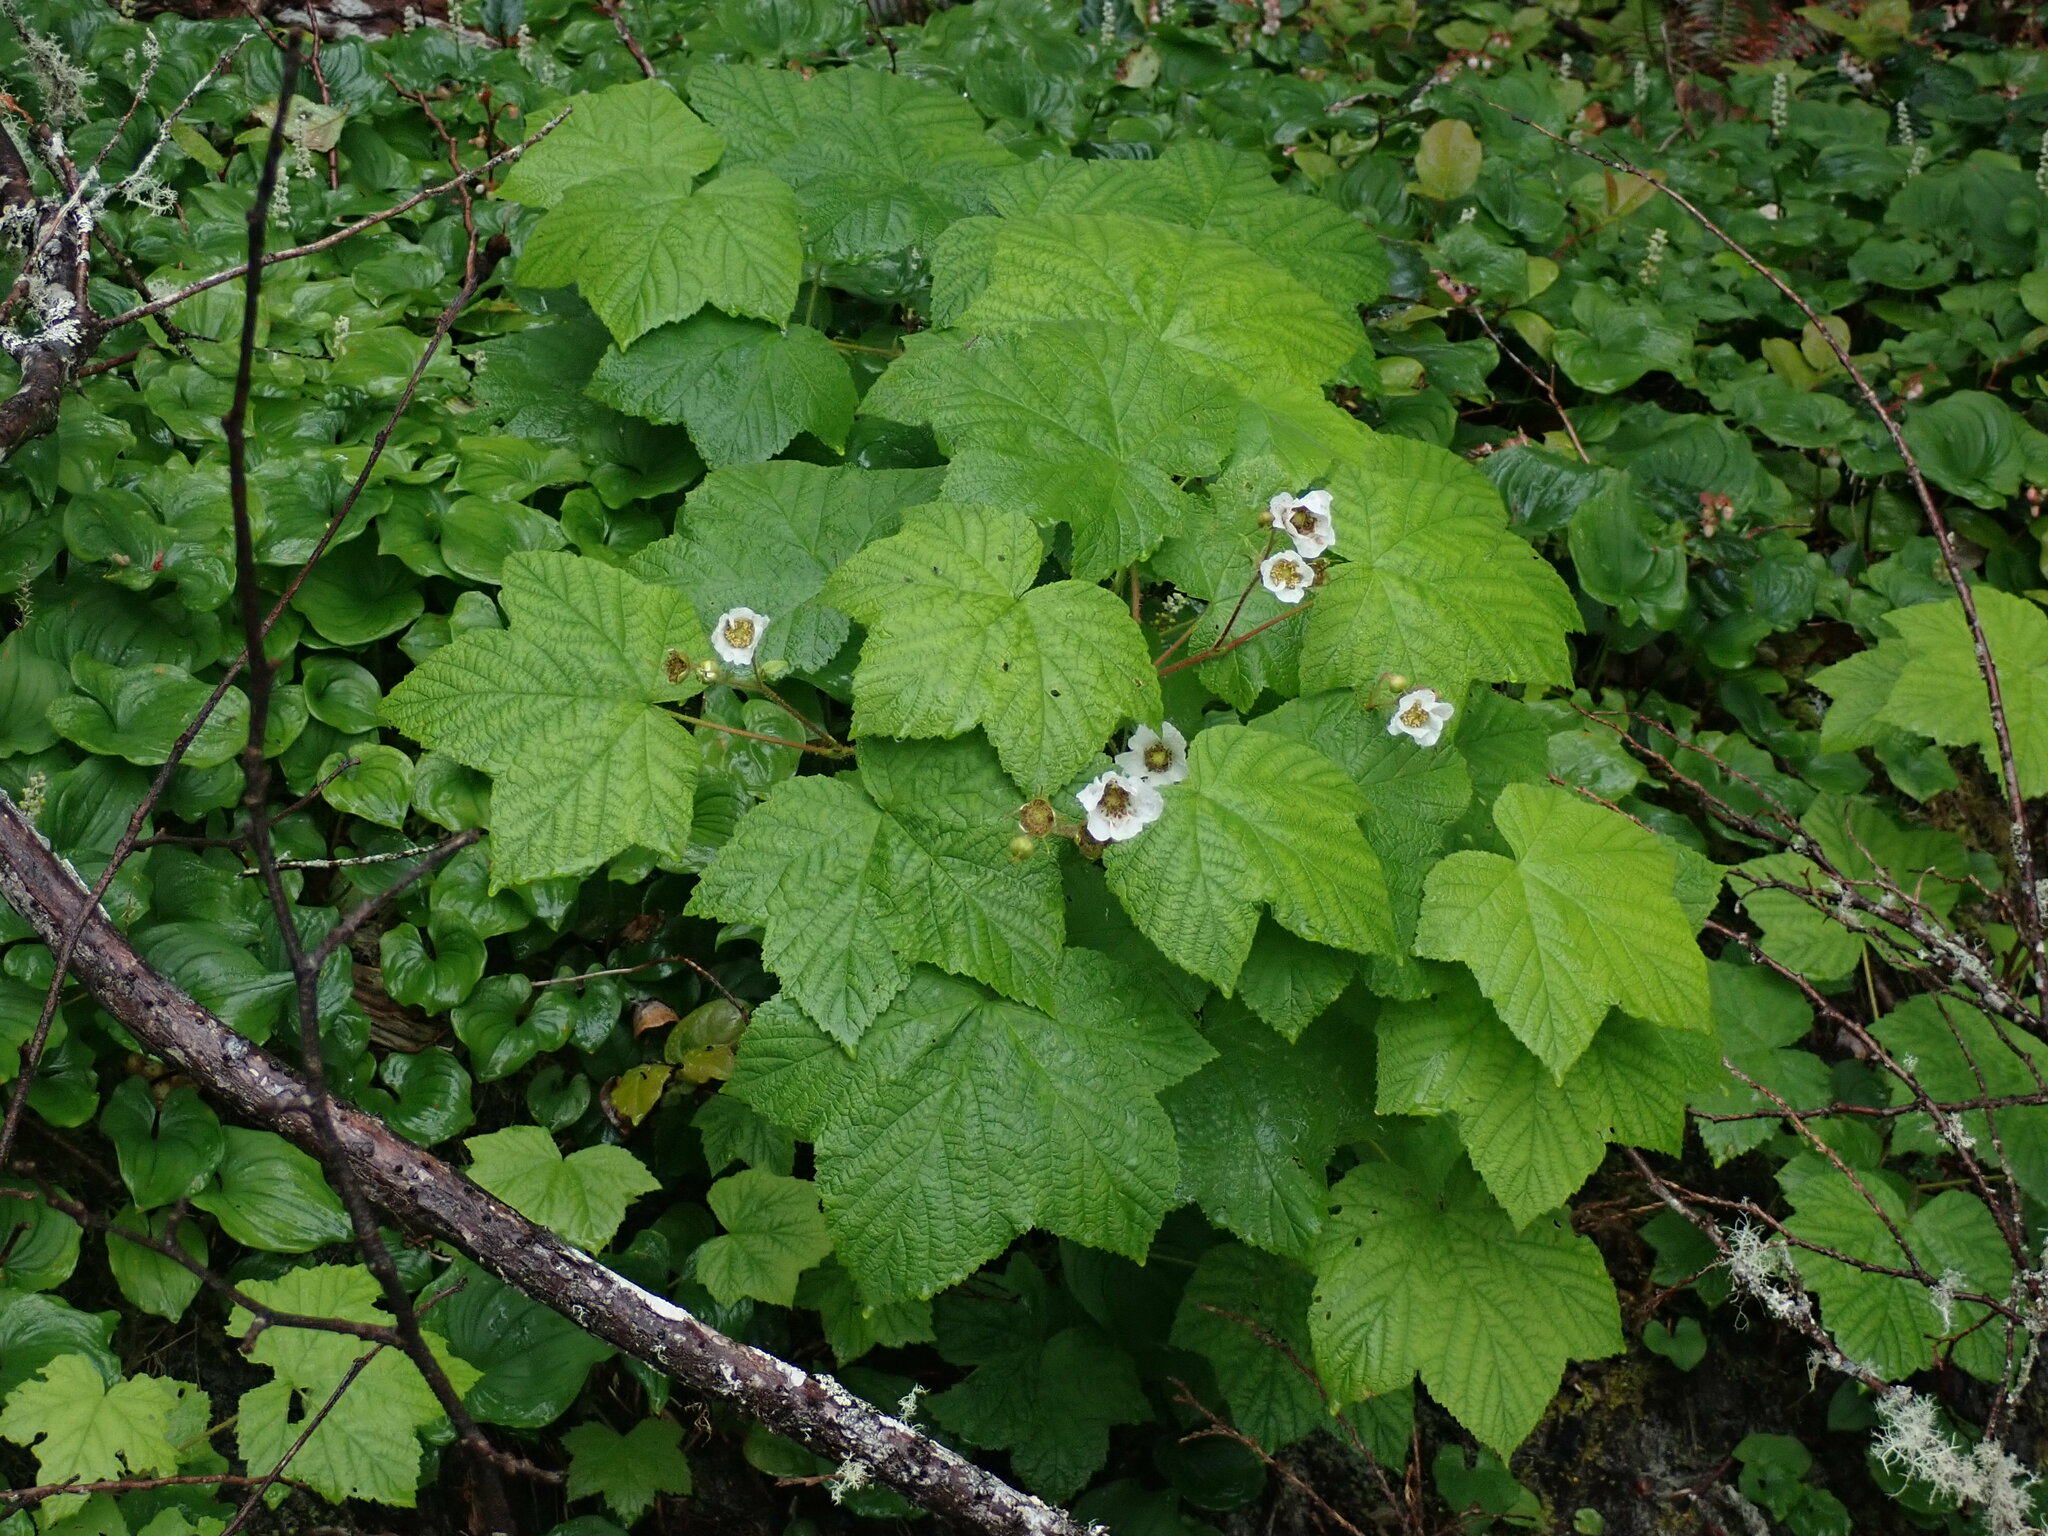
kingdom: Plantae
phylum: Tracheophyta
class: Magnoliopsida
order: Rosales
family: Rosaceae
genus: Rubus
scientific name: Rubus parviflorus
